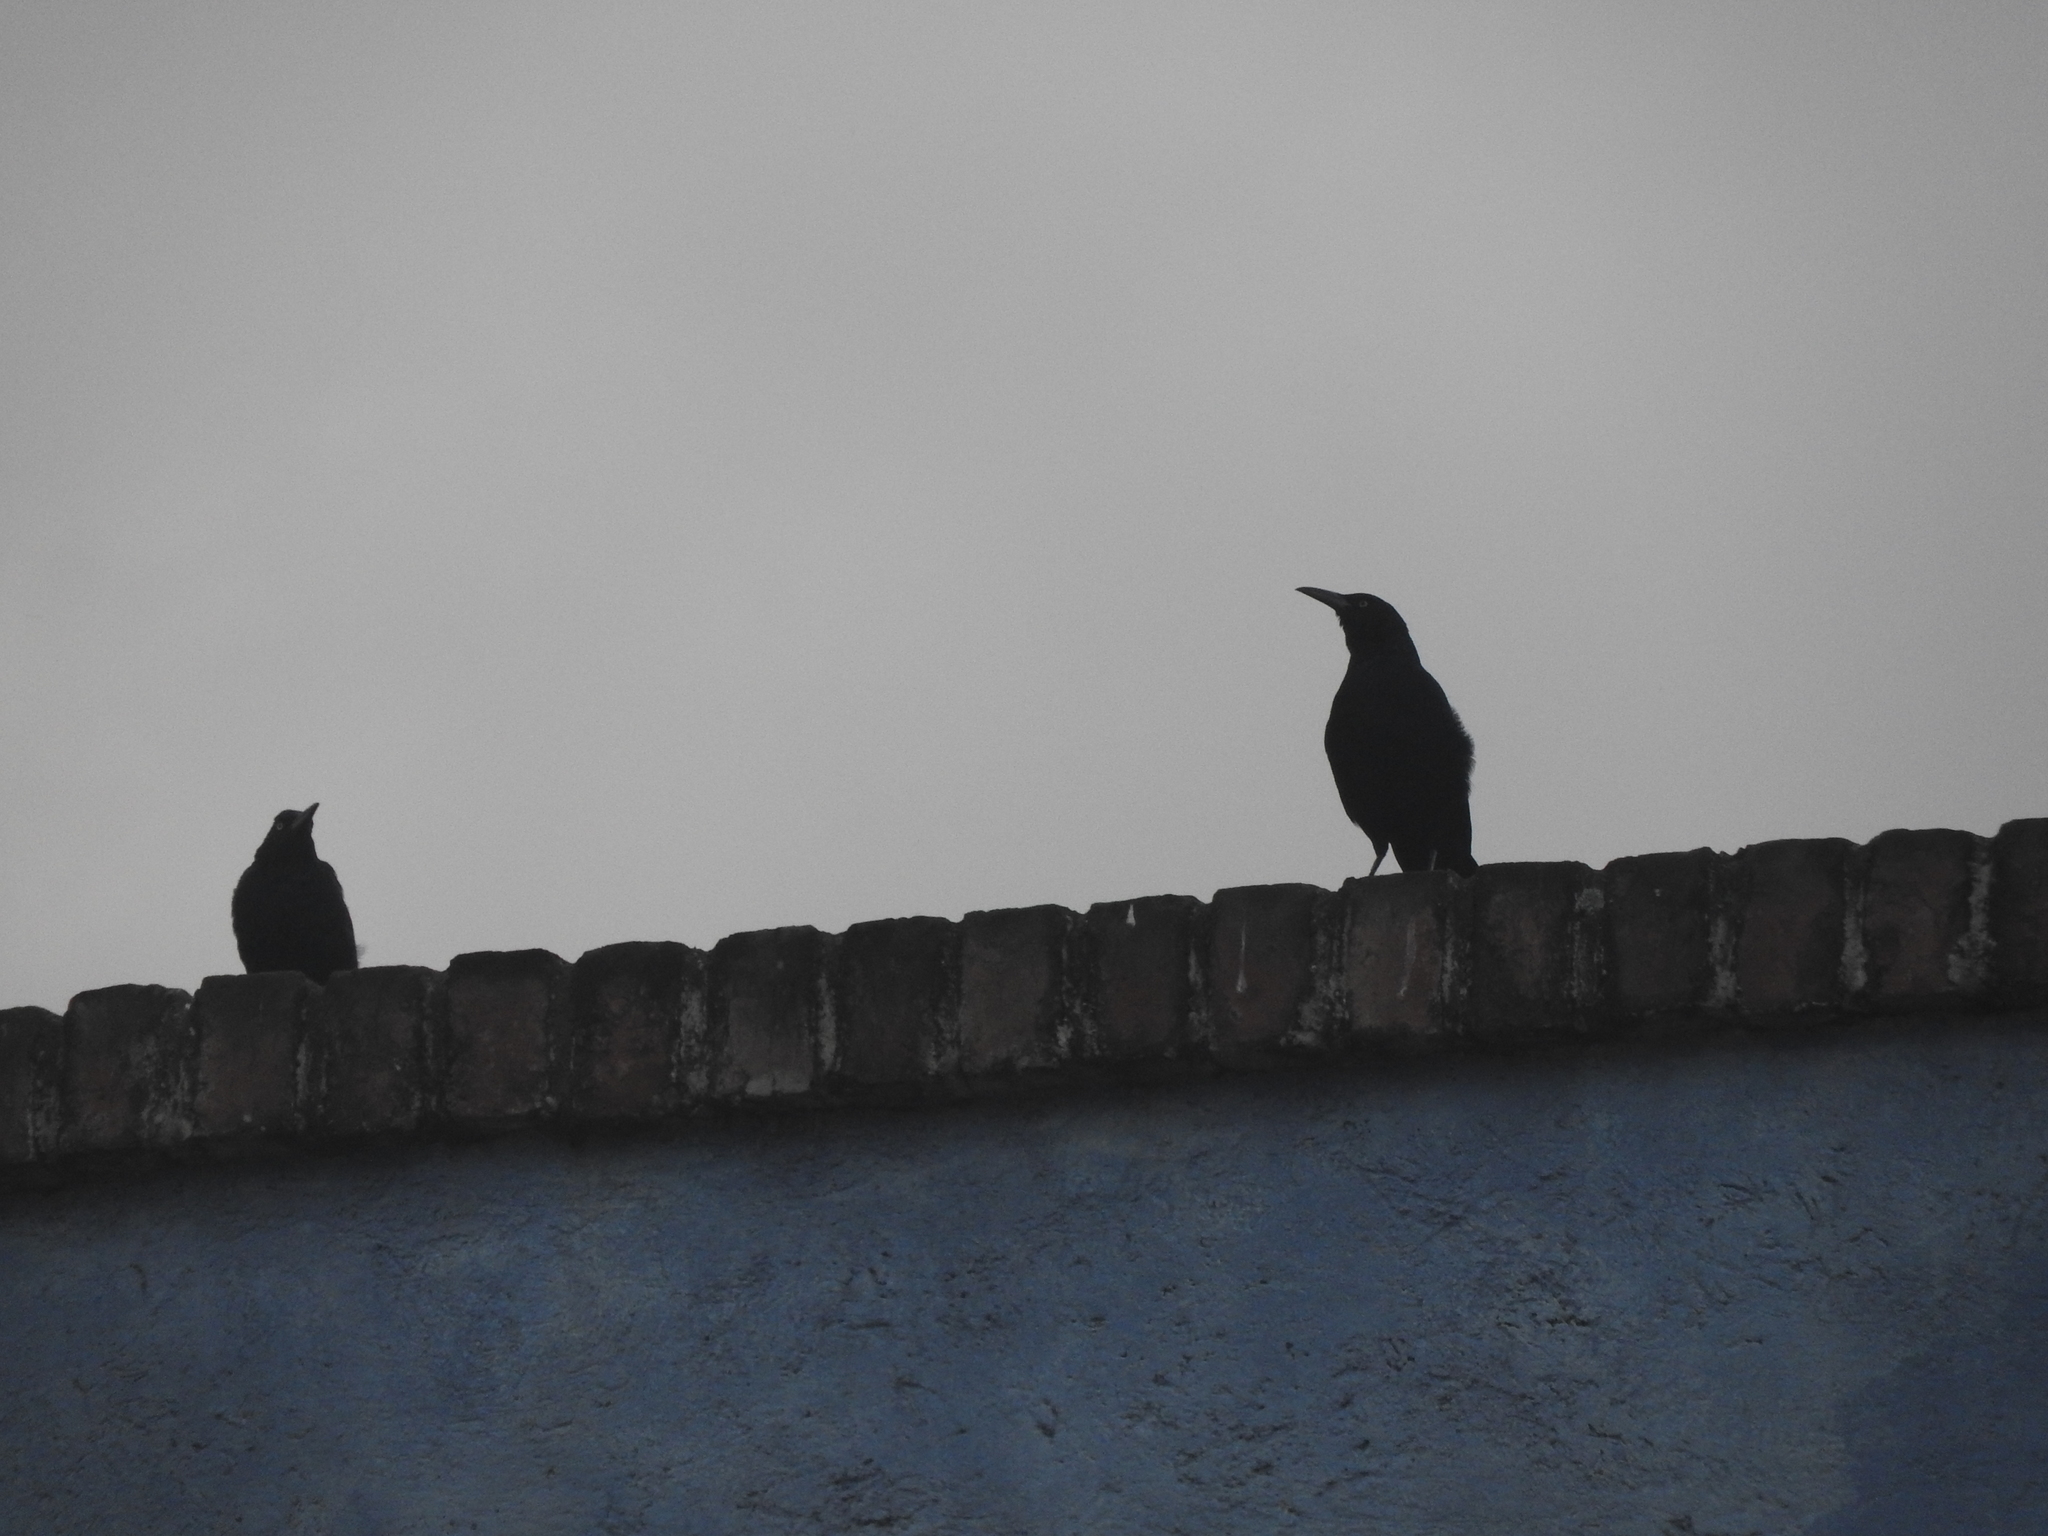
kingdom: Animalia
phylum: Chordata
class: Aves
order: Passeriformes
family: Icteridae
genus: Quiscalus
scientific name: Quiscalus mexicanus
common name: Great-tailed grackle
